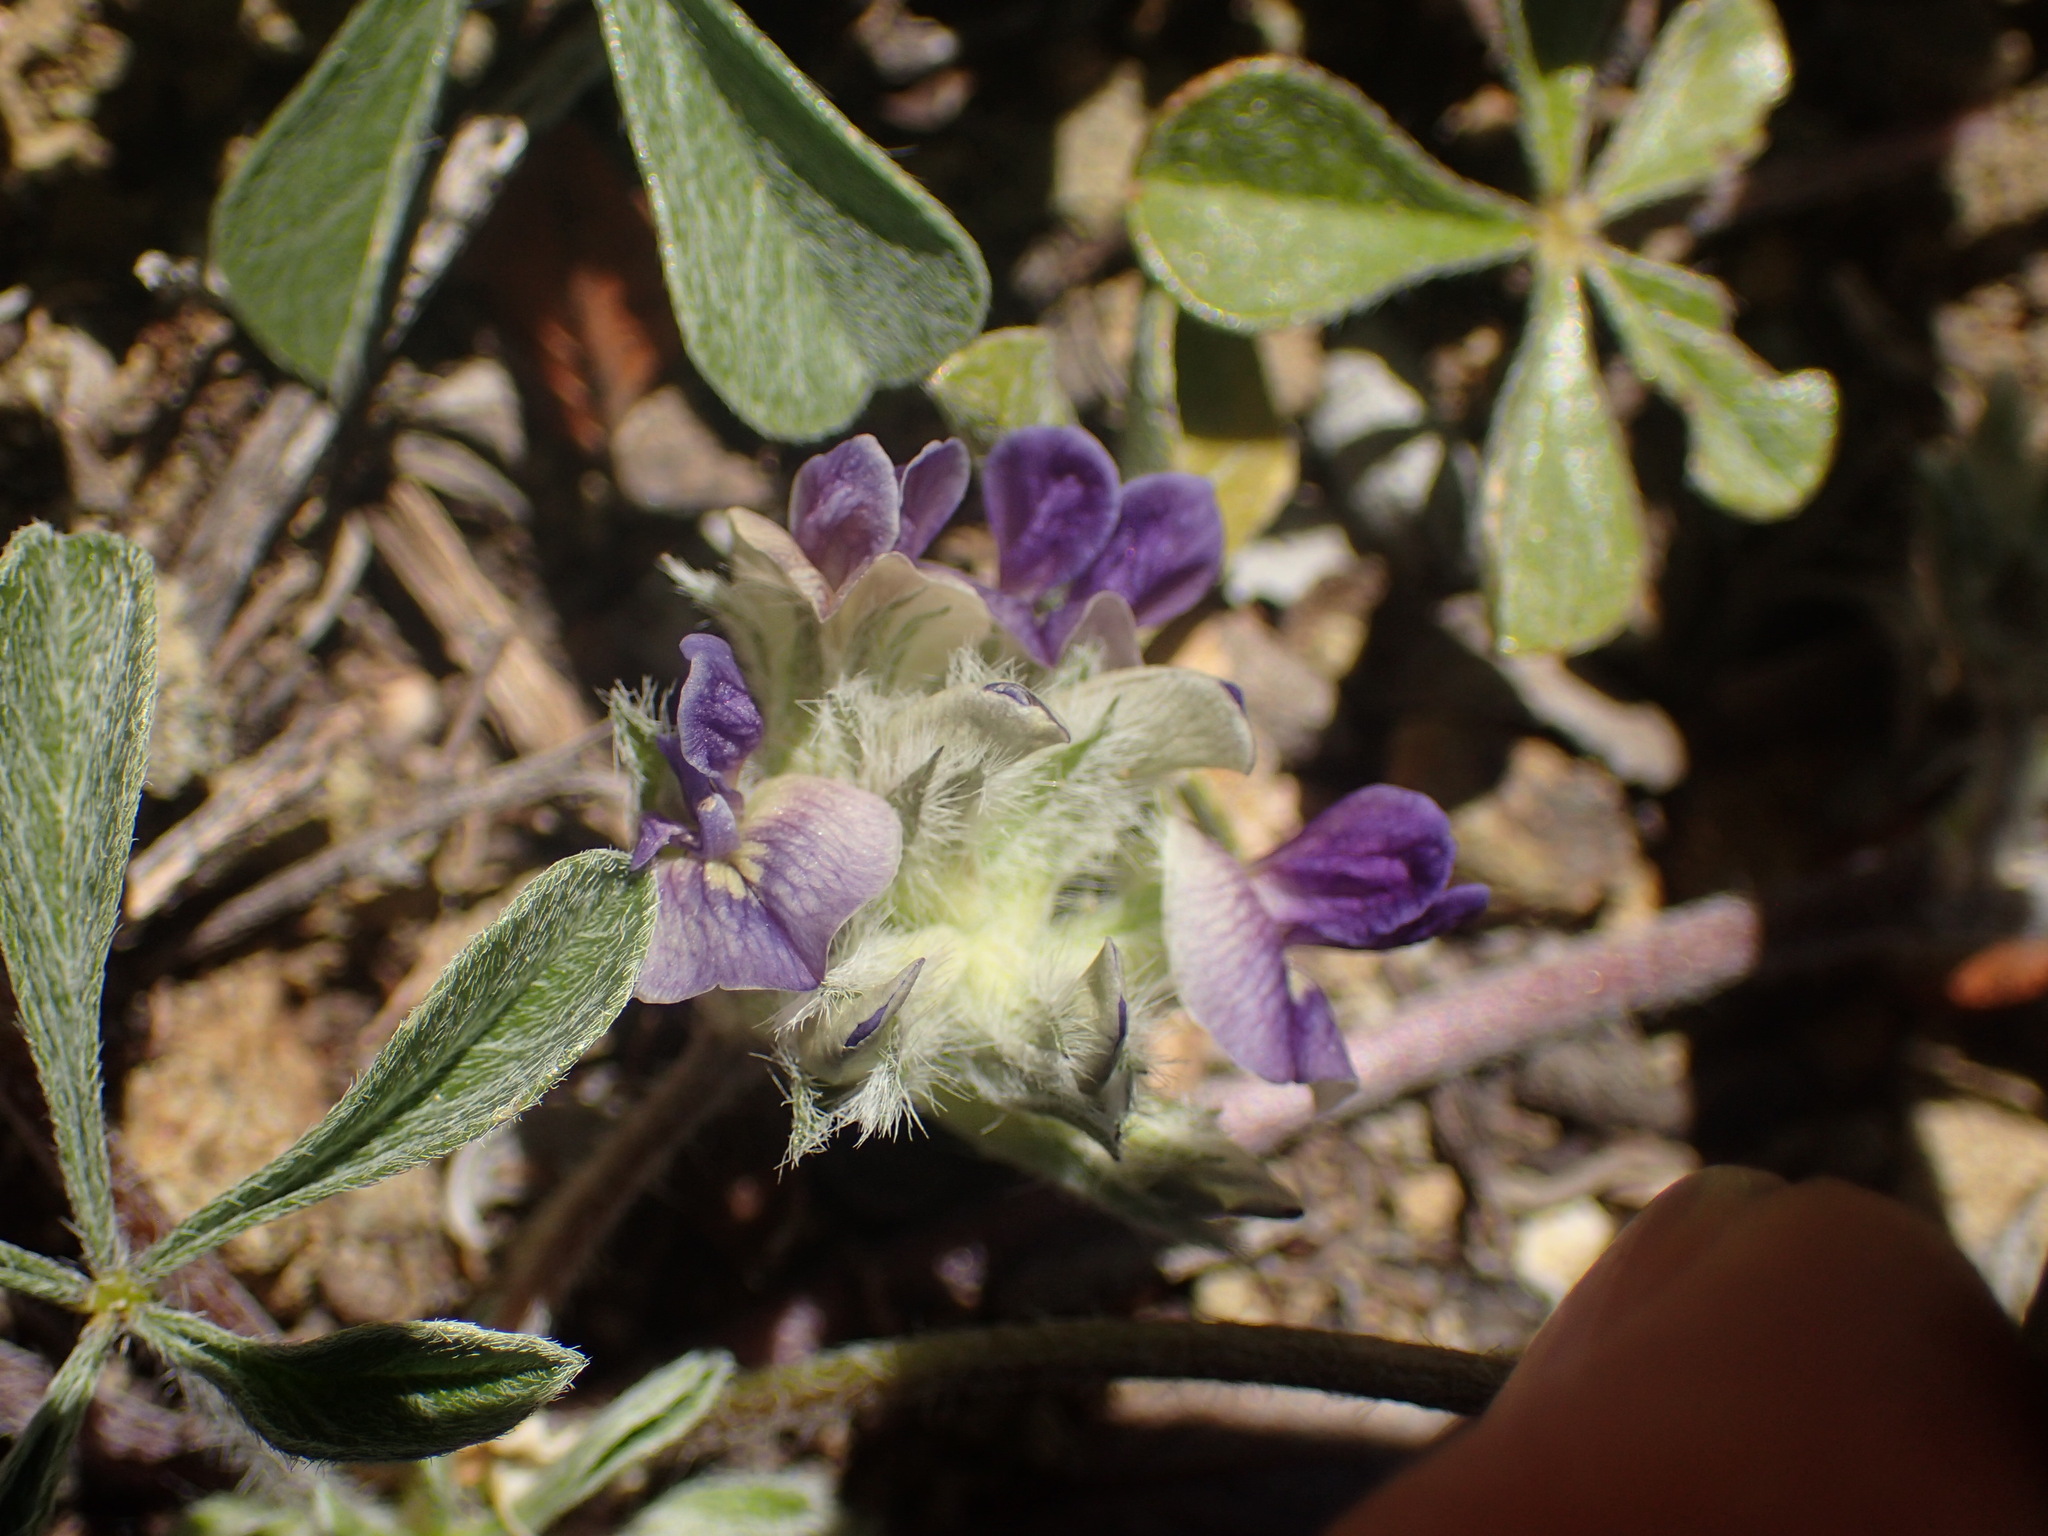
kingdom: Plantae
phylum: Tracheophyta
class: Magnoliopsida
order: Fabales
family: Fabaceae
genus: Pediomelum
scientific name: Pediomelum californicum
